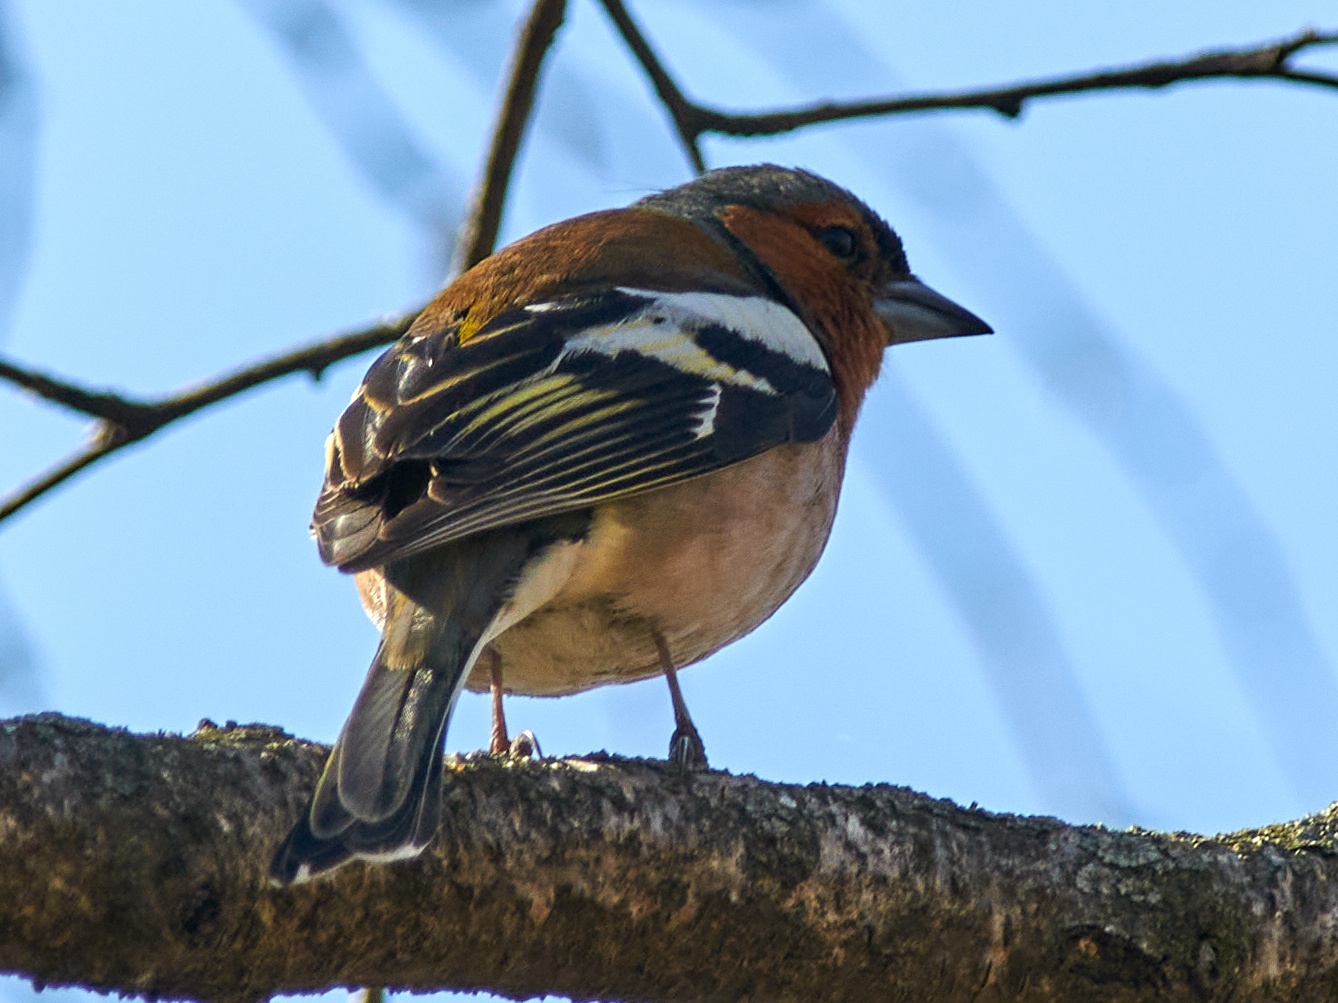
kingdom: Animalia
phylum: Chordata
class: Aves
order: Passeriformes
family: Fringillidae
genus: Fringilla
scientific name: Fringilla coelebs
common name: Common chaffinch
